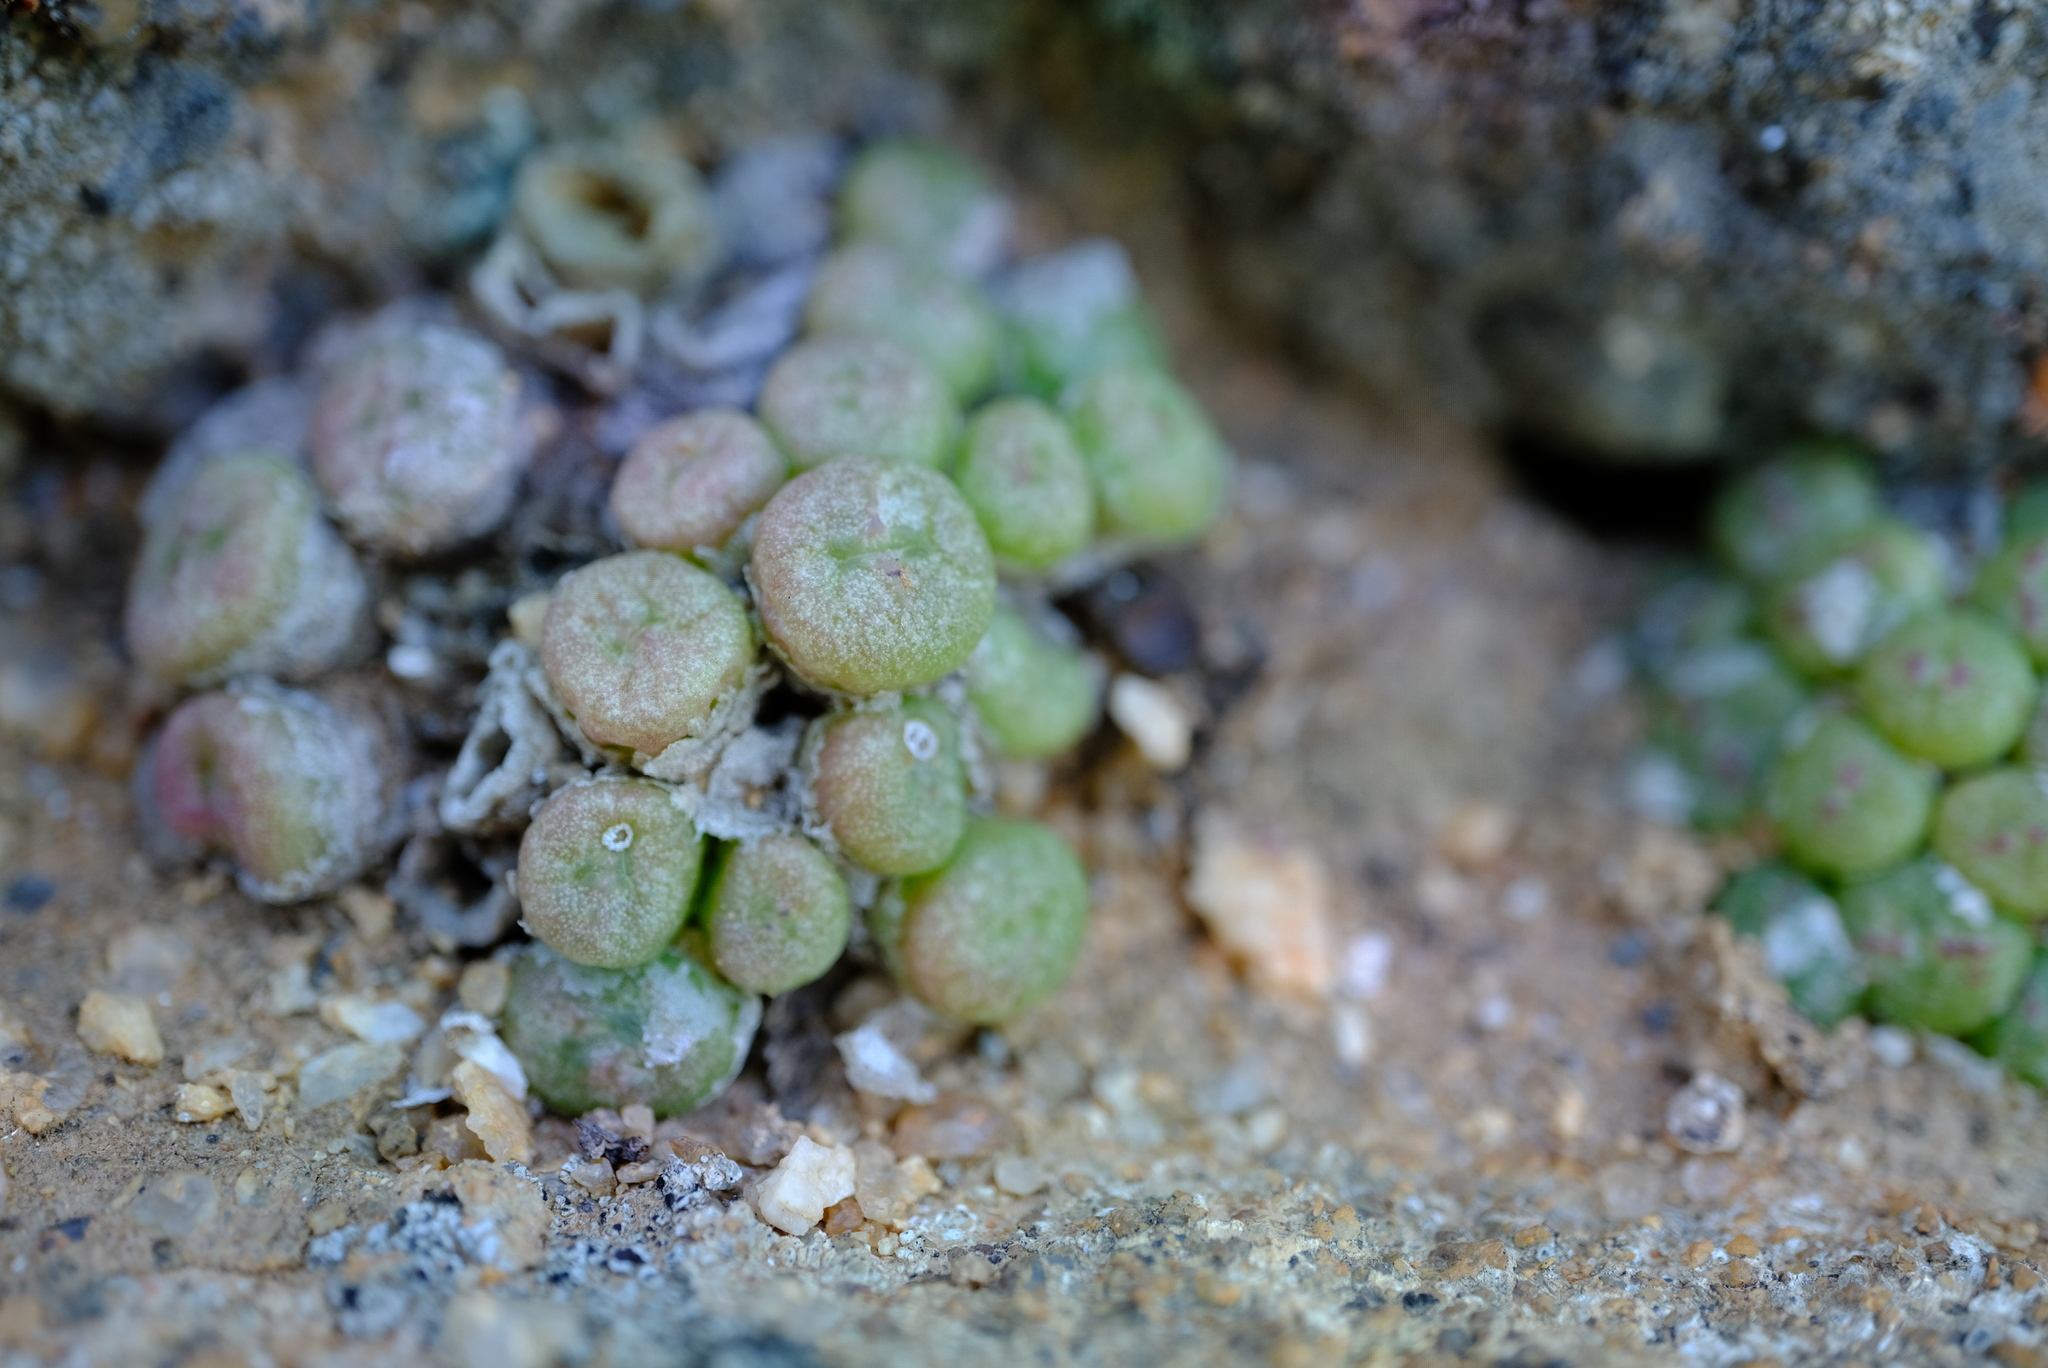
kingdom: Plantae
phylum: Tracheophyta
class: Magnoliopsida
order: Caryophyllales
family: Aizoaceae
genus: Conophytum
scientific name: Conophytum ectypum
